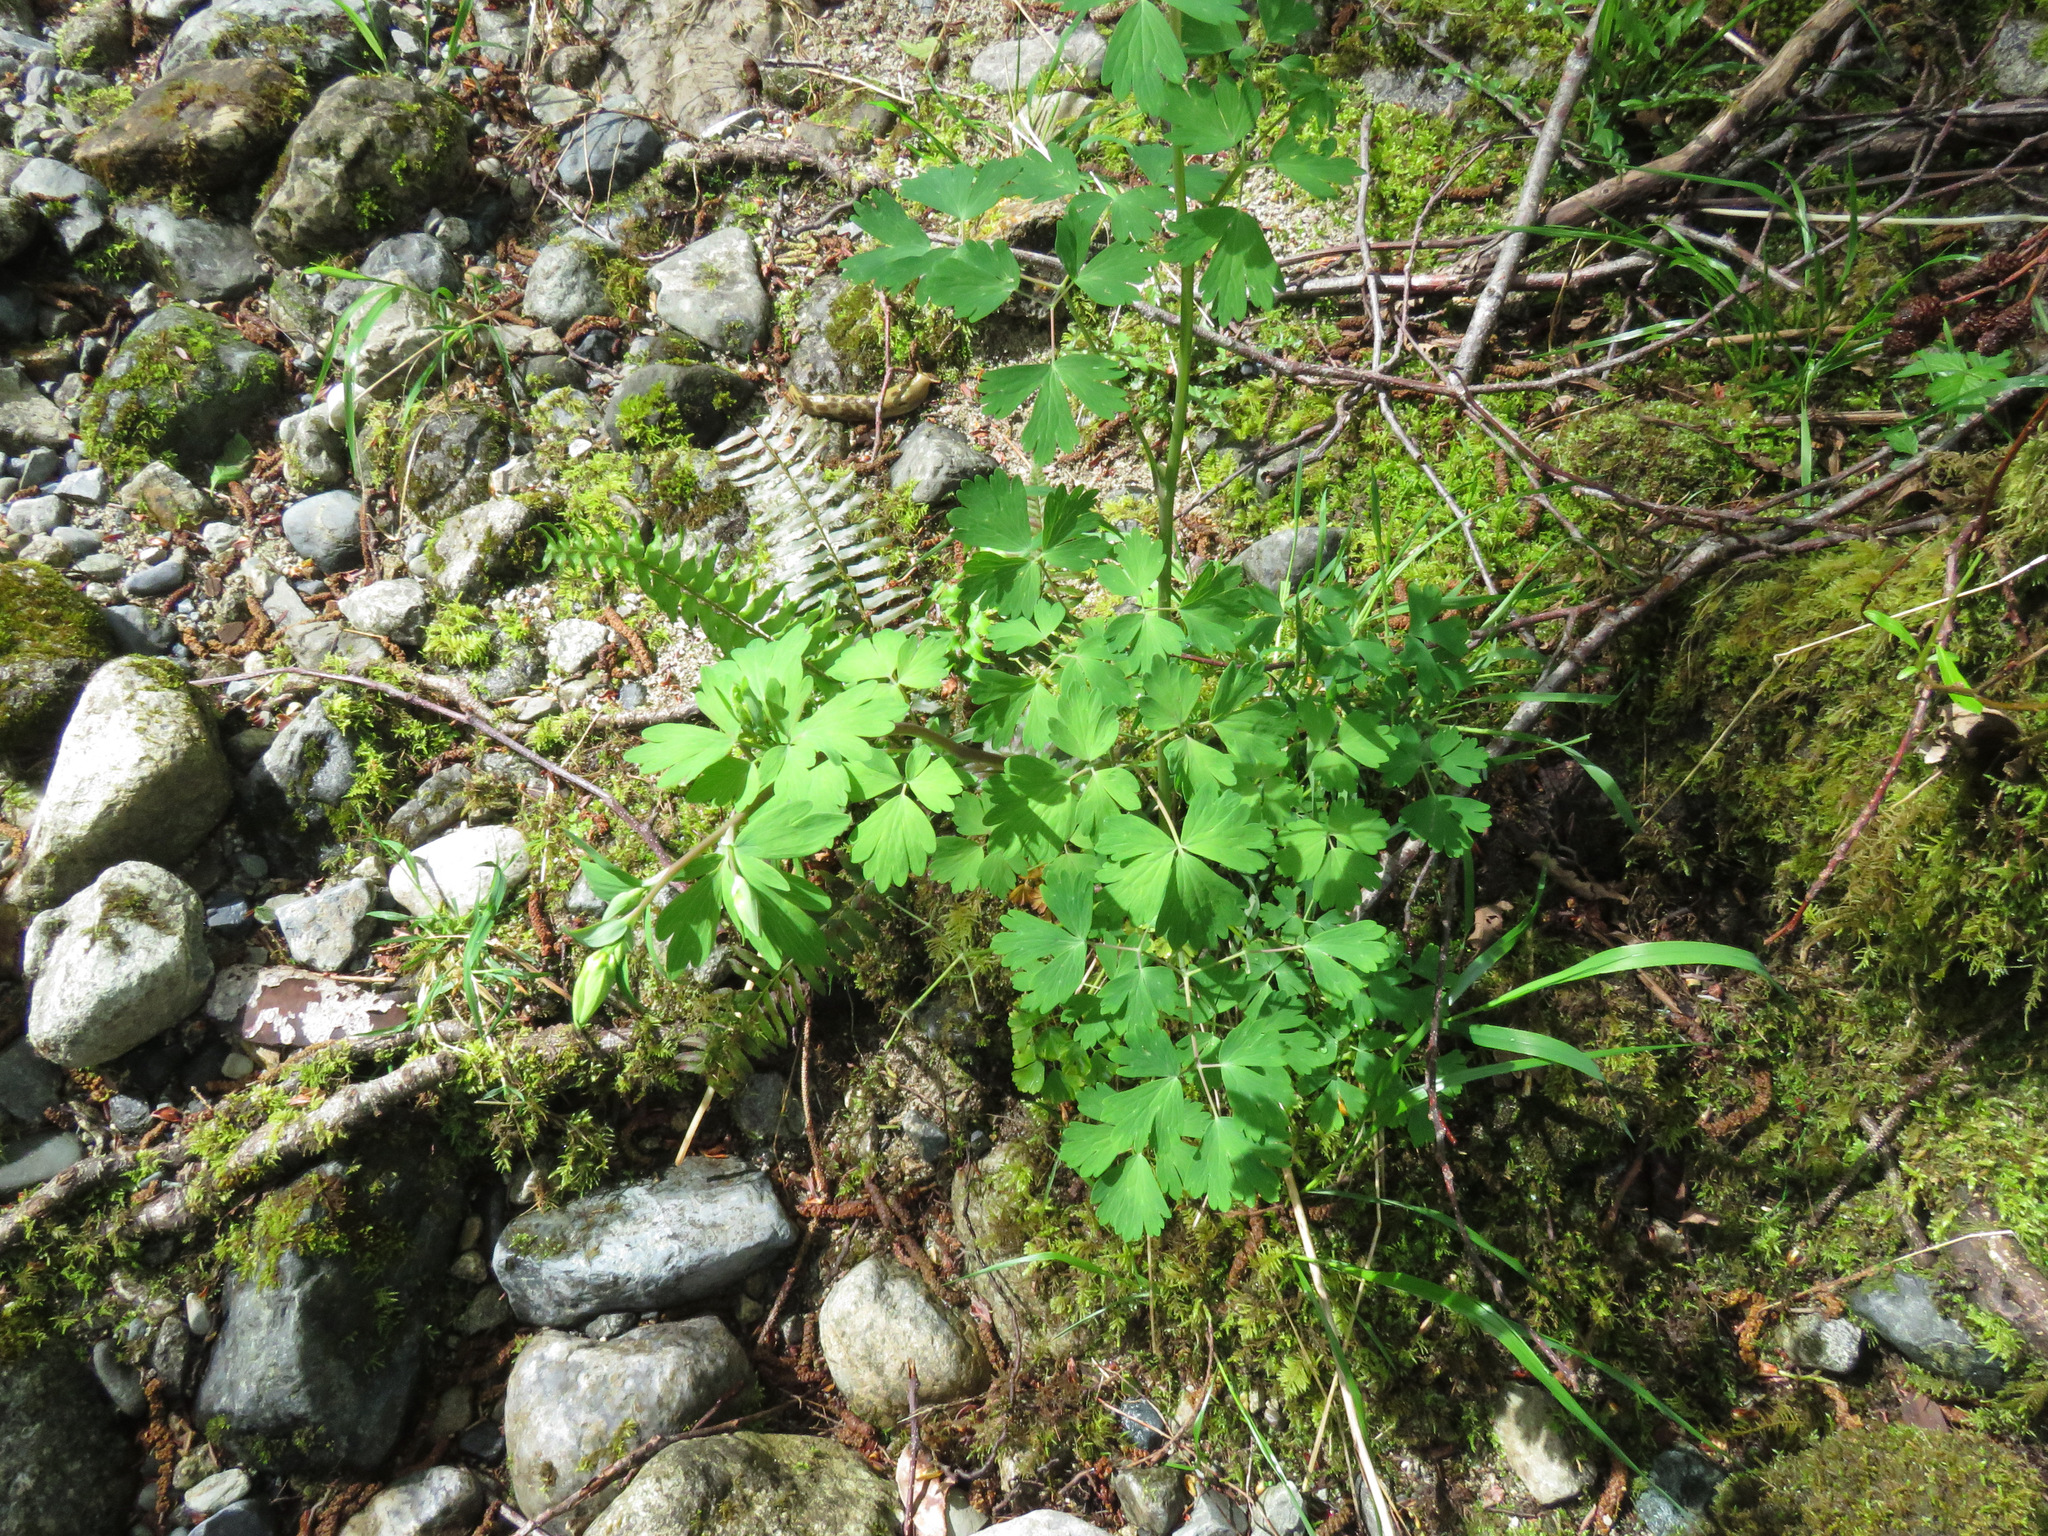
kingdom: Plantae
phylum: Tracheophyta
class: Magnoliopsida
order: Ranunculales
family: Ranunculaceae
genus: Aquilegia
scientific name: Aquilegia formosa
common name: Sitka columbine
